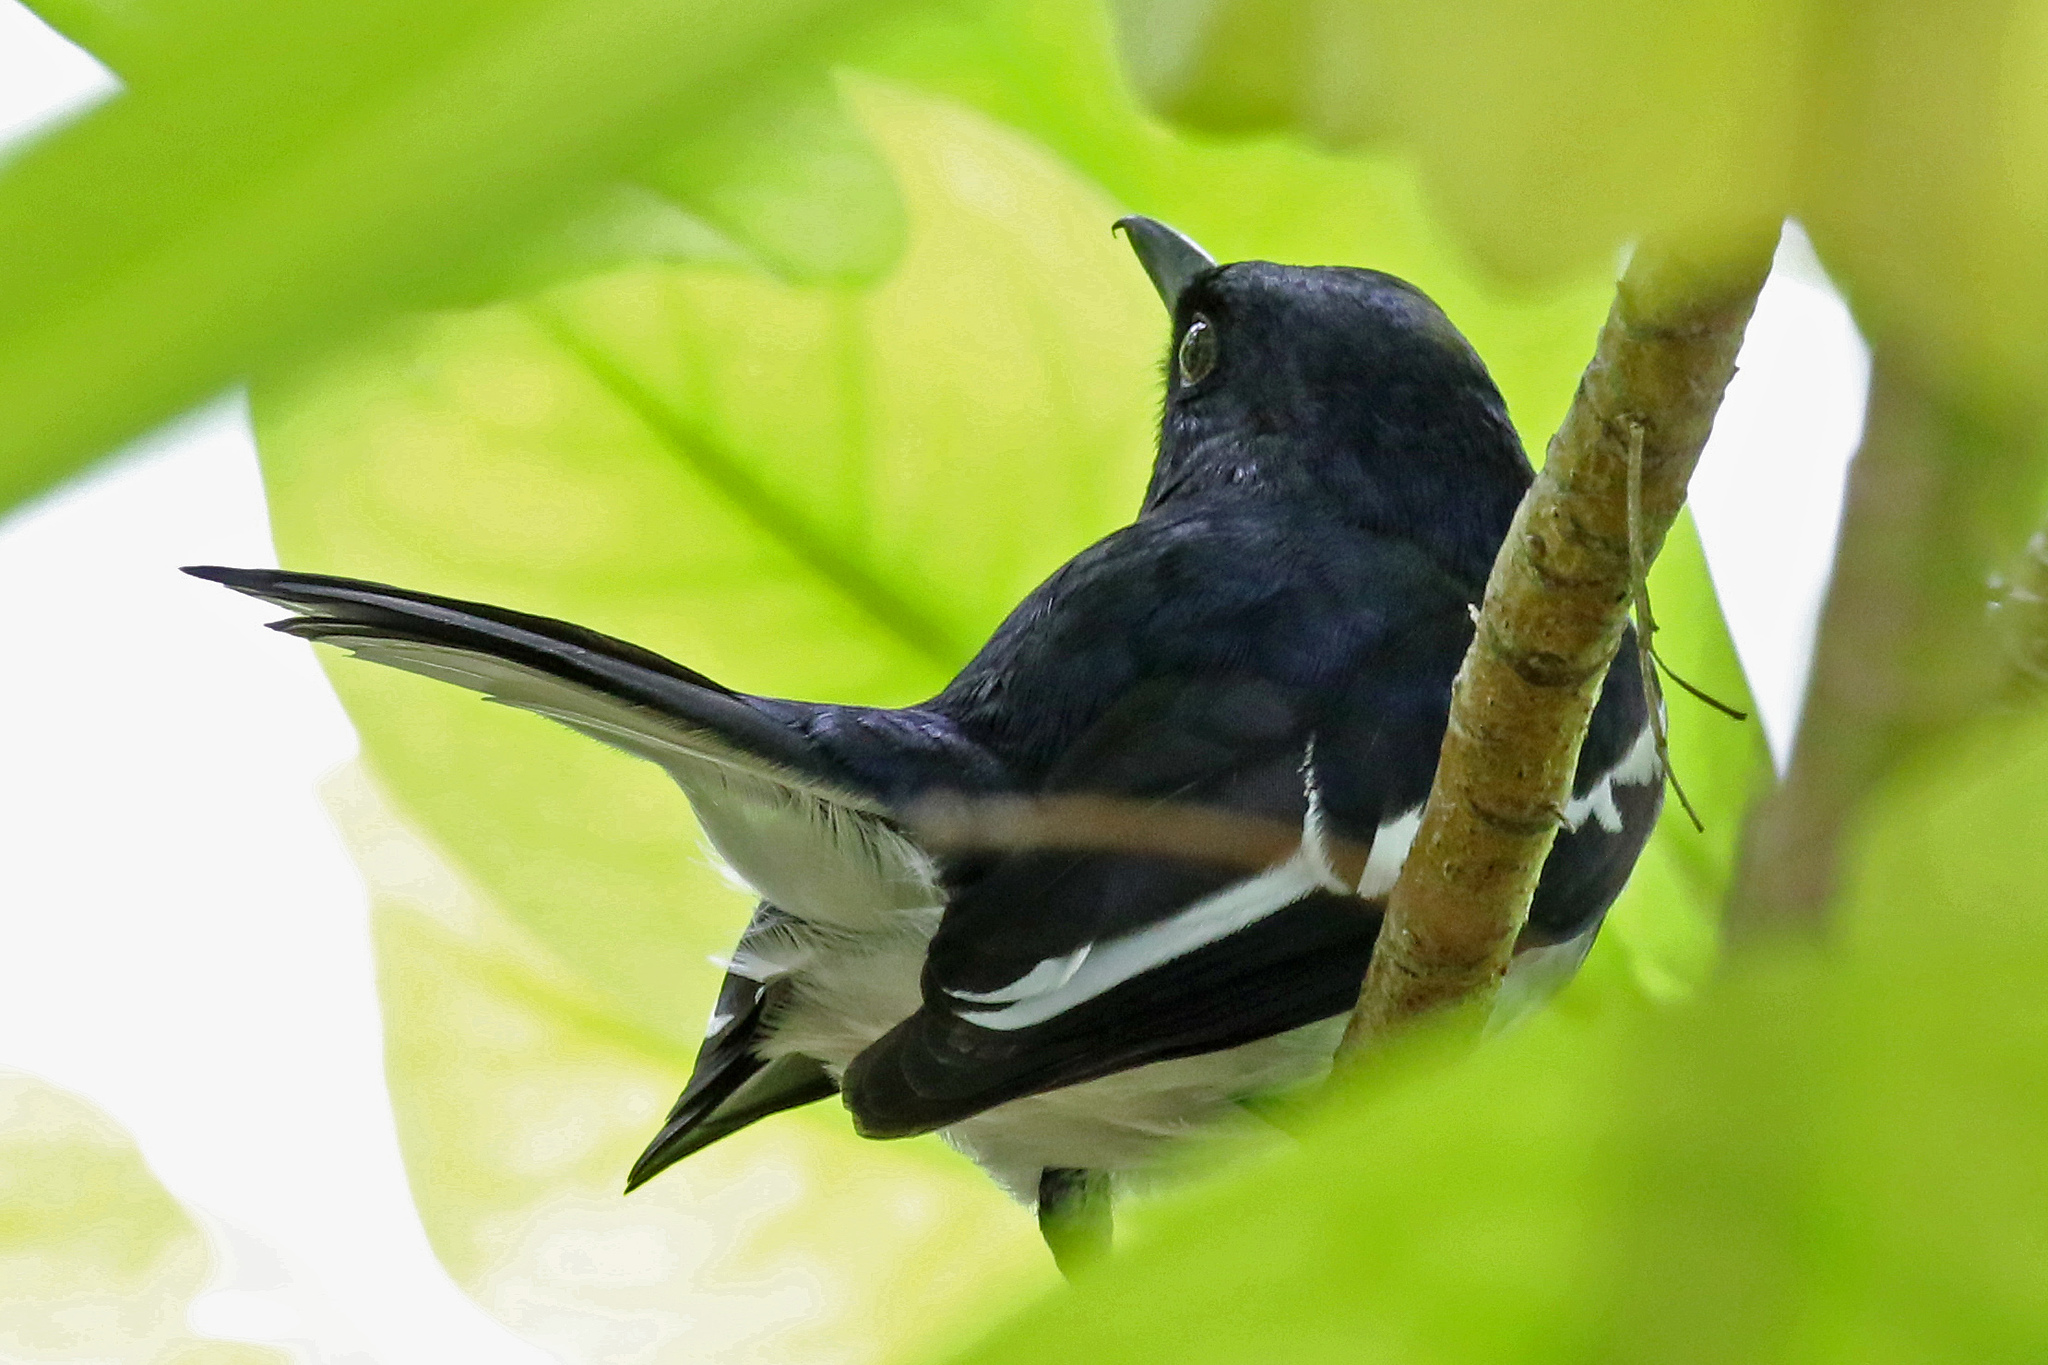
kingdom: Animalia
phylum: Chordata
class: Aves
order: Passeriformes
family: Muscicapidae
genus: Copsychus
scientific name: Copsychus saularis
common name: Oriental magpie-robin
